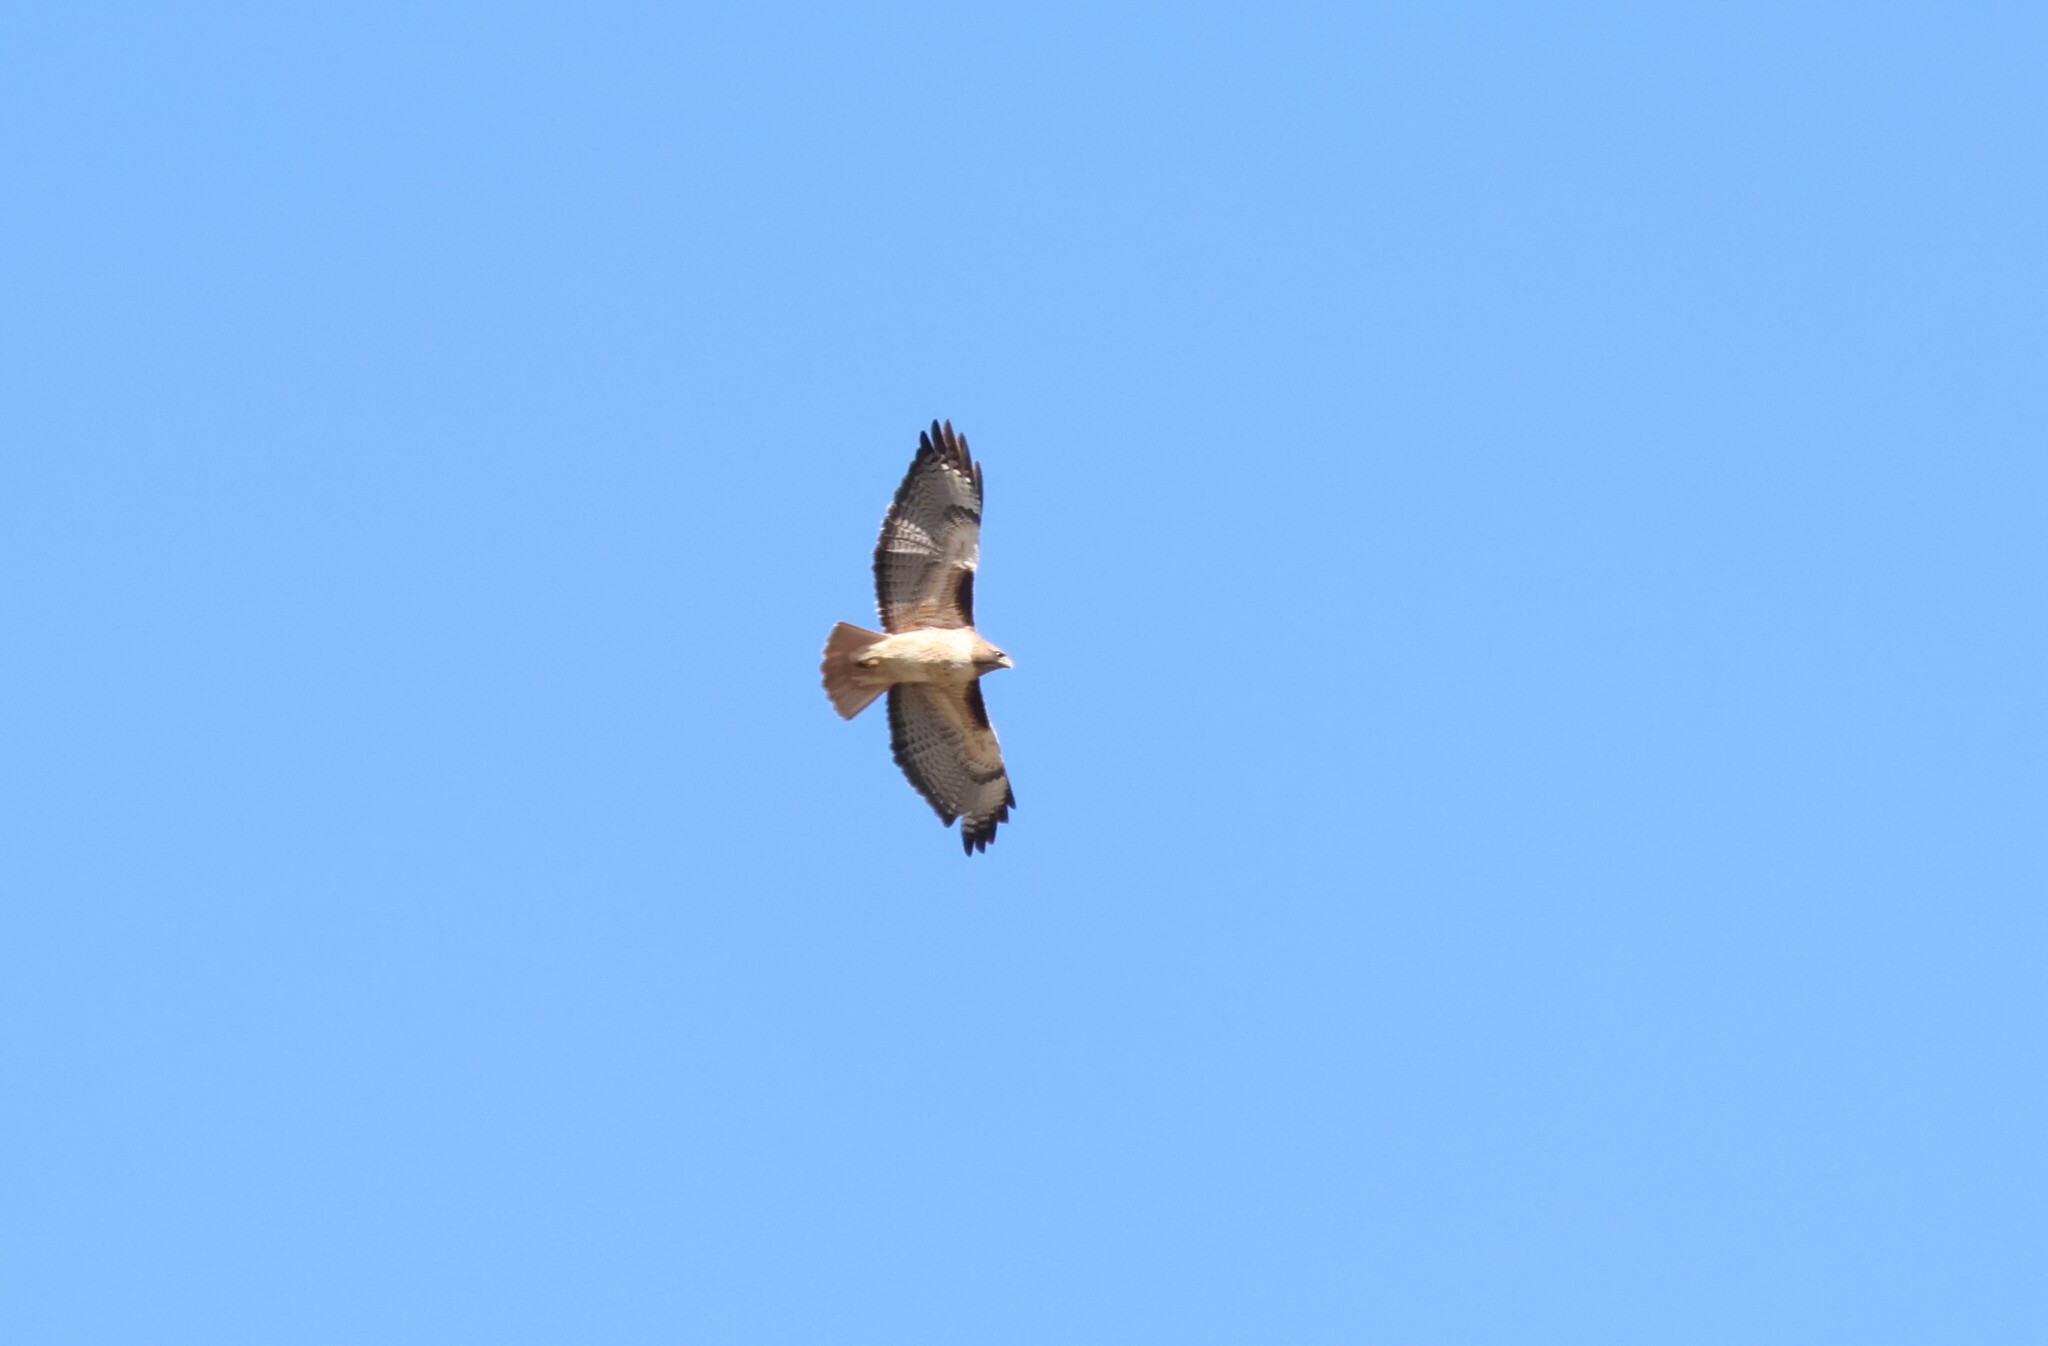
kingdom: Animalia
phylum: Chordata
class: Aves
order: Accipitriformes
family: Accipitridae
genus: Buteo
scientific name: Buteo jamaicensis
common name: Red-tailed hawk
